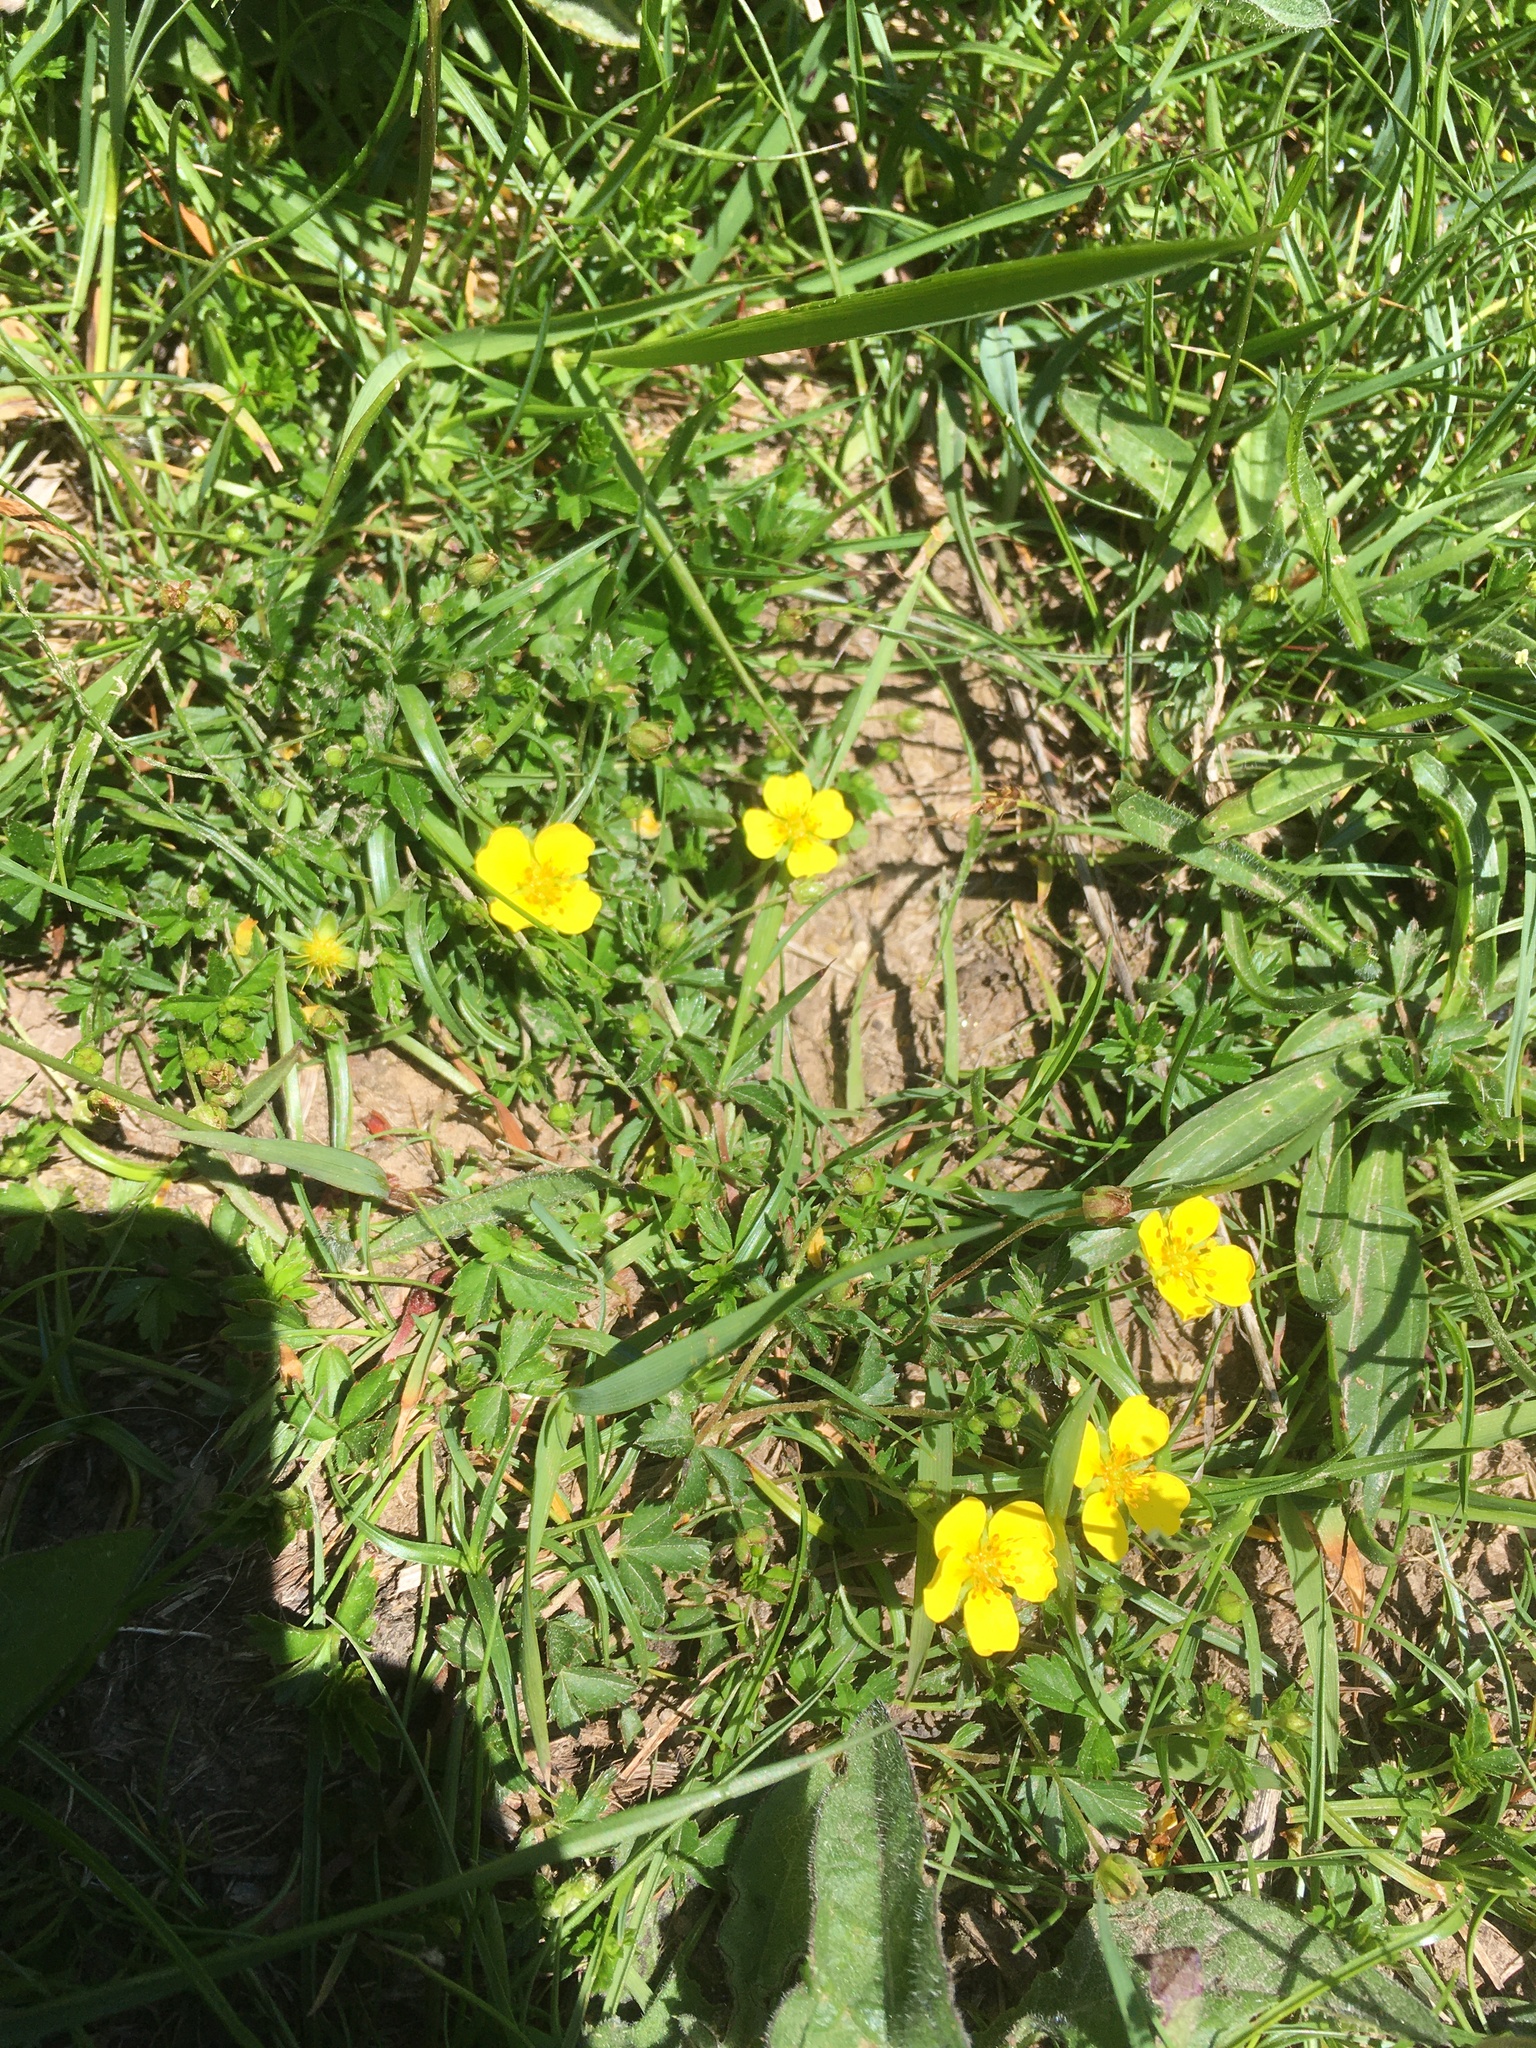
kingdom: Plantae
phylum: Tracheophyta
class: Magnoliopsida
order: Rosales
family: Rosaceae
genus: Potentilla
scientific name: Potentilla verna
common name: Spring cinquefoil
